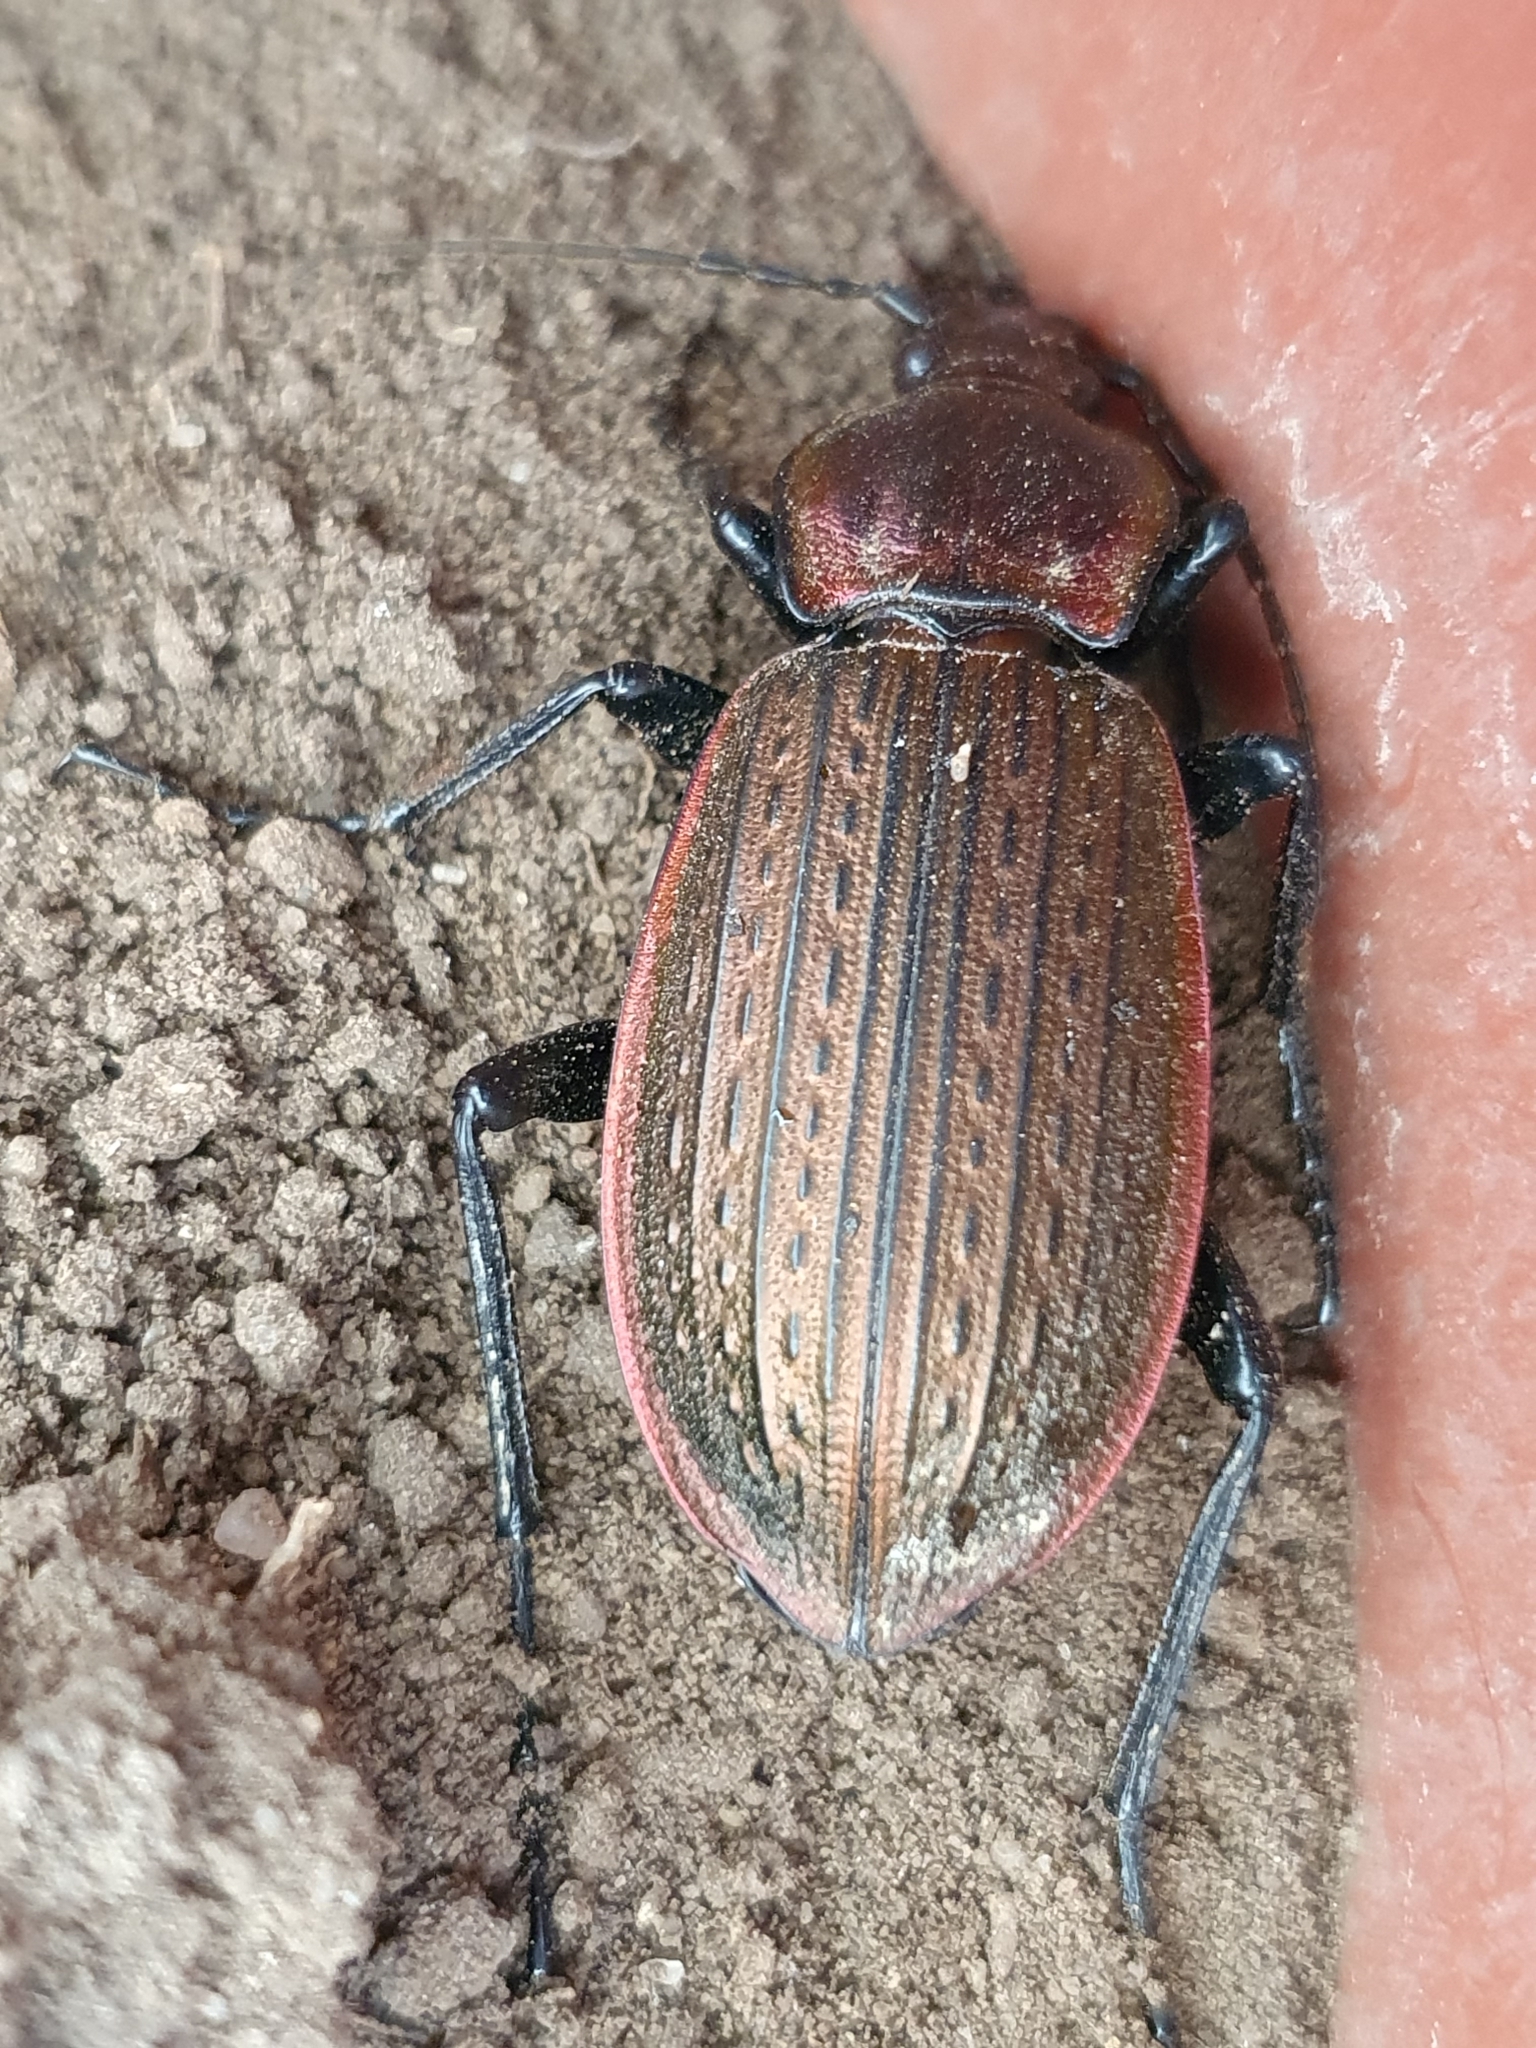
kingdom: Animalia
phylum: Arthropoda
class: Insecta
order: Coleoptera
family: Carabidae
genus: Carabus
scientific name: Carabus morbillosus
